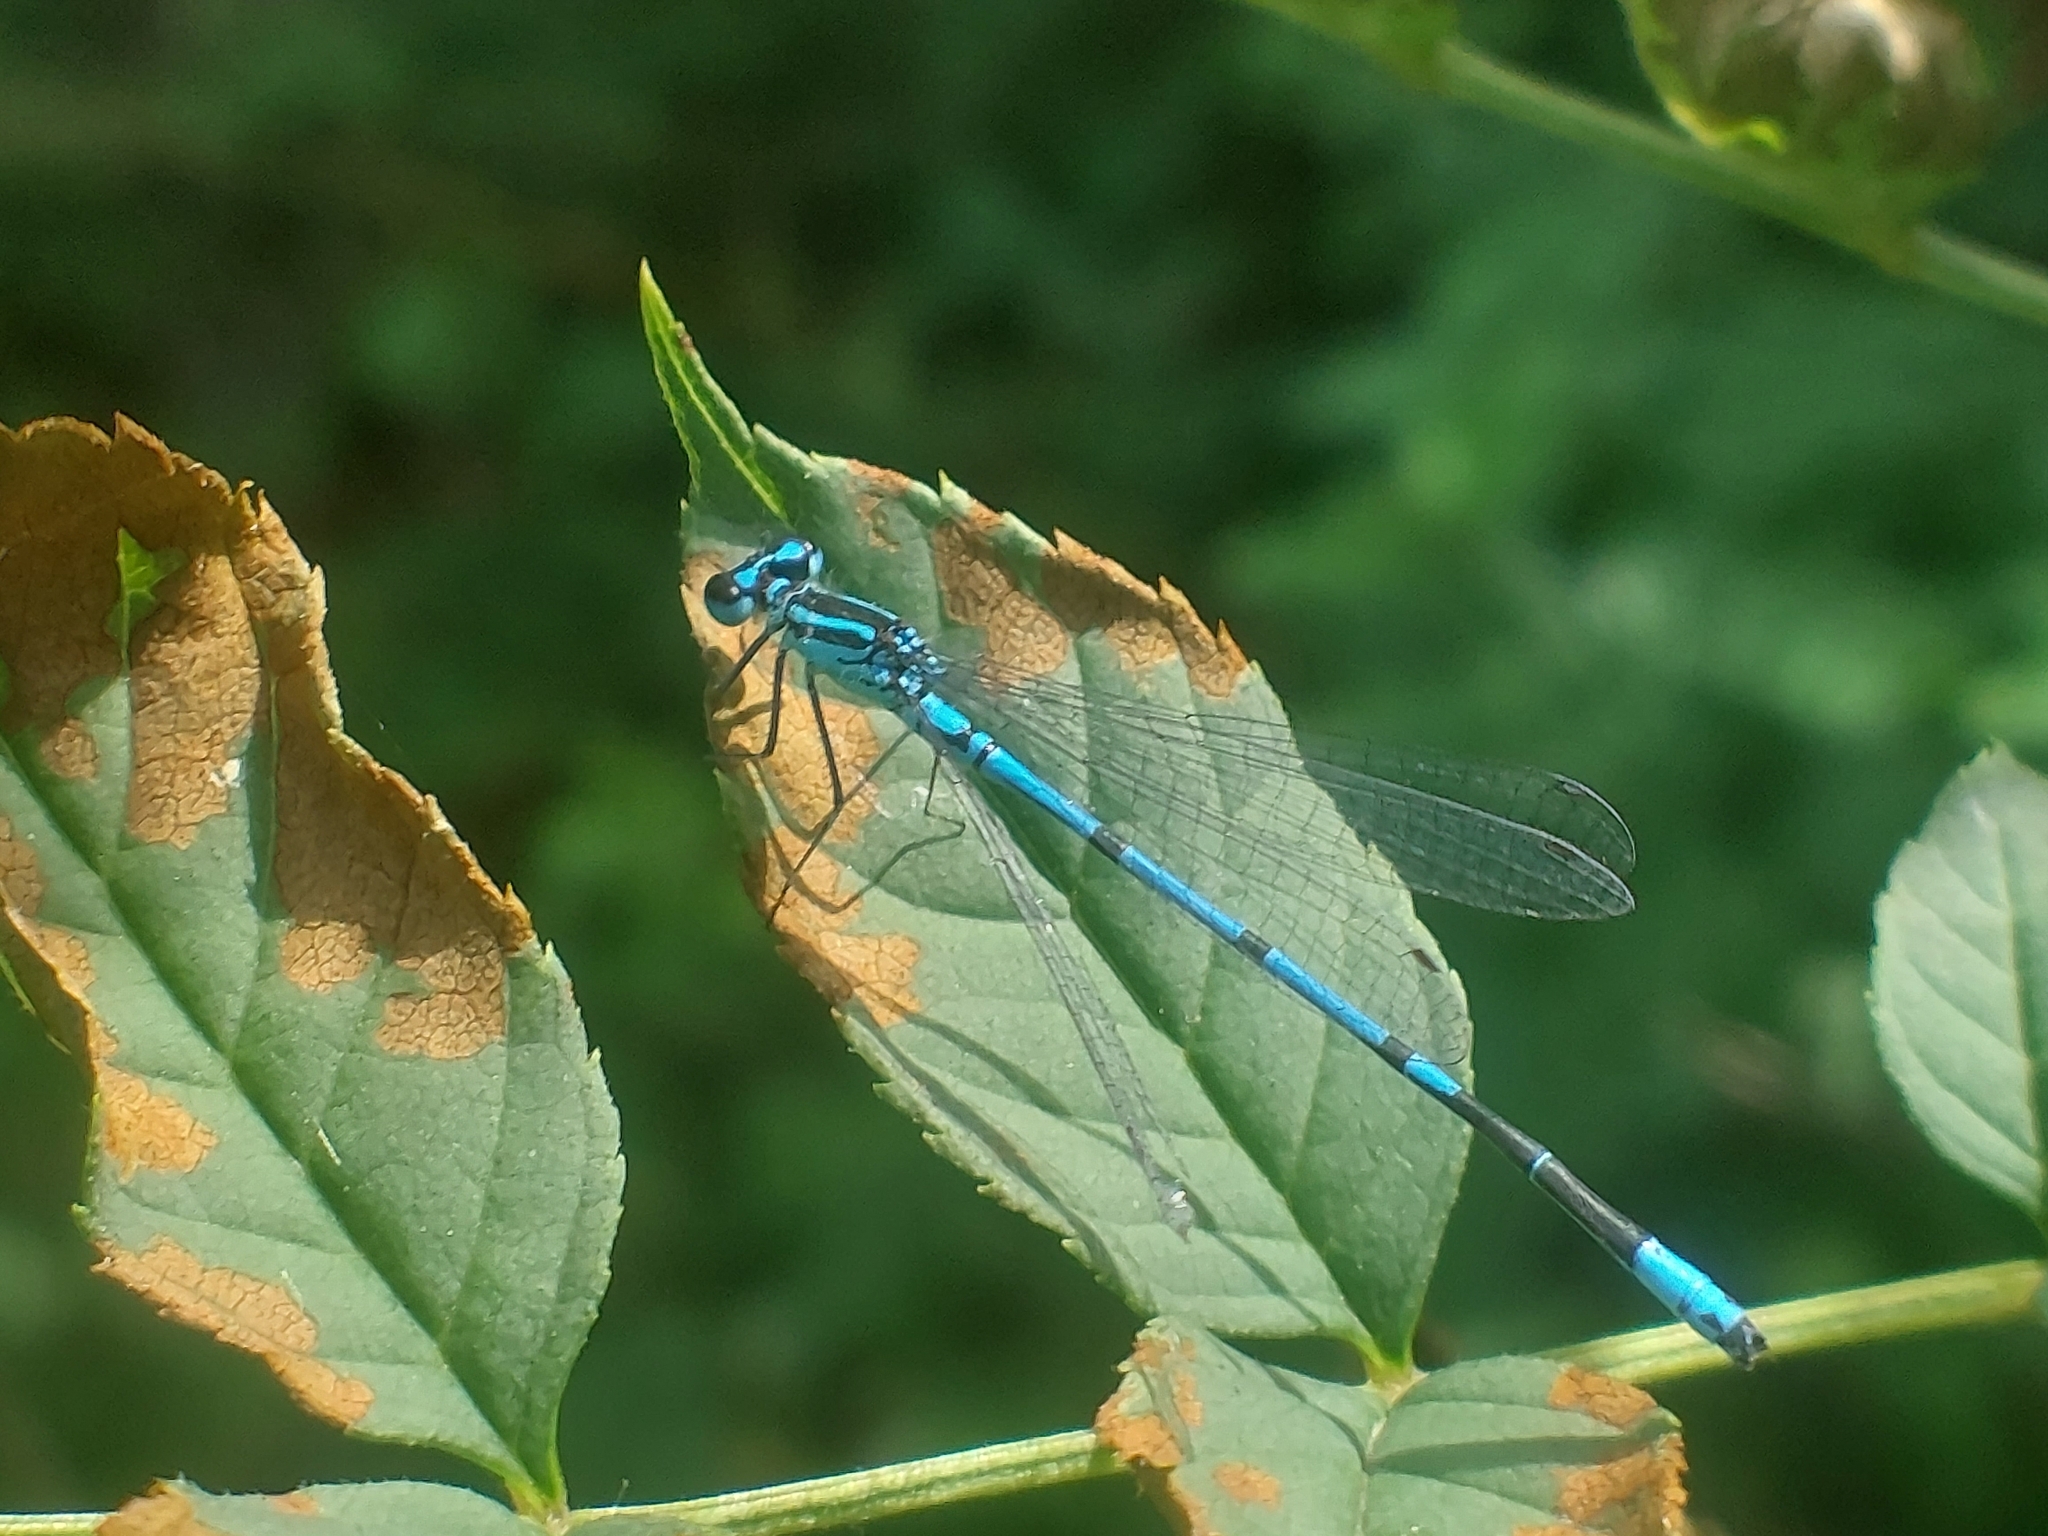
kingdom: Animalia
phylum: Arthropoda
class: Insecta
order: Odonata
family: Coenagrionidae
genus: Coenagrion
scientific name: Coenagrion puella
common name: Azure damselfly
